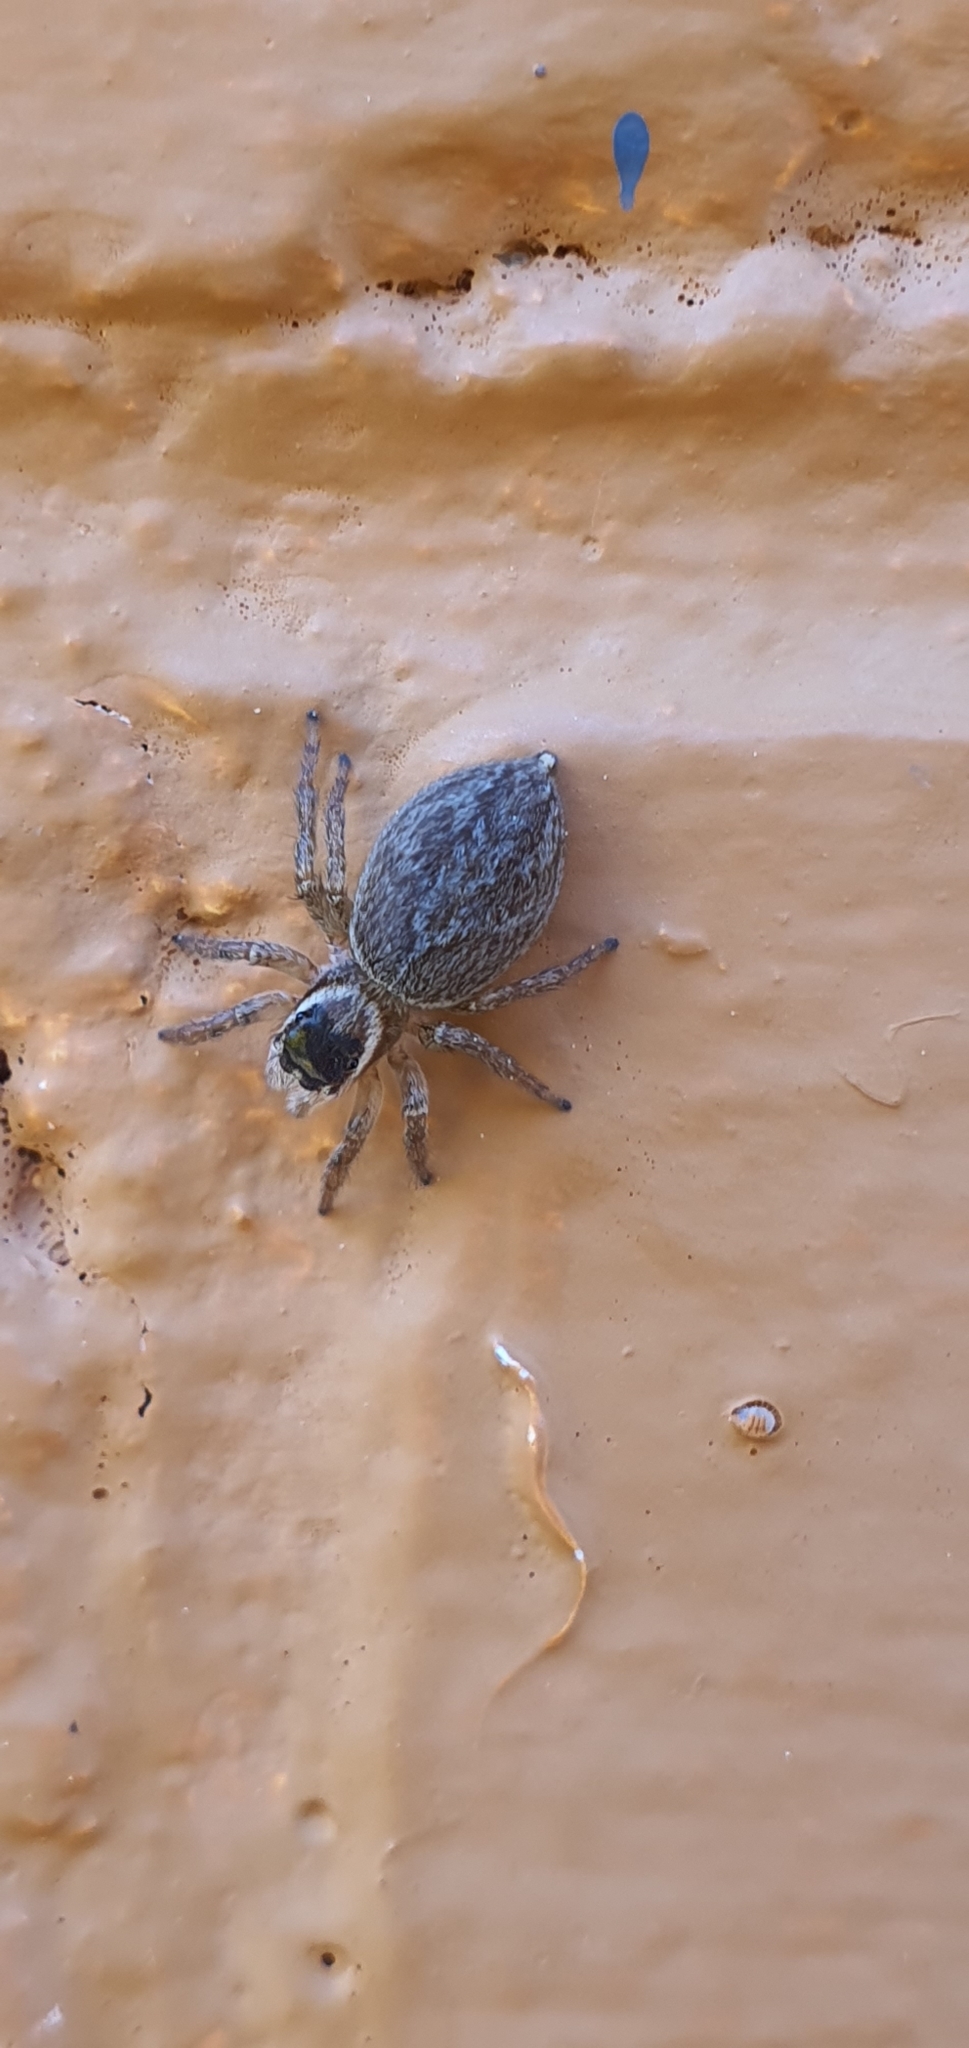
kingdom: Animalia
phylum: Arthropoda
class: Arachnida
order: Araneae
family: Salticidae
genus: Maratus
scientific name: Maratus griseus
